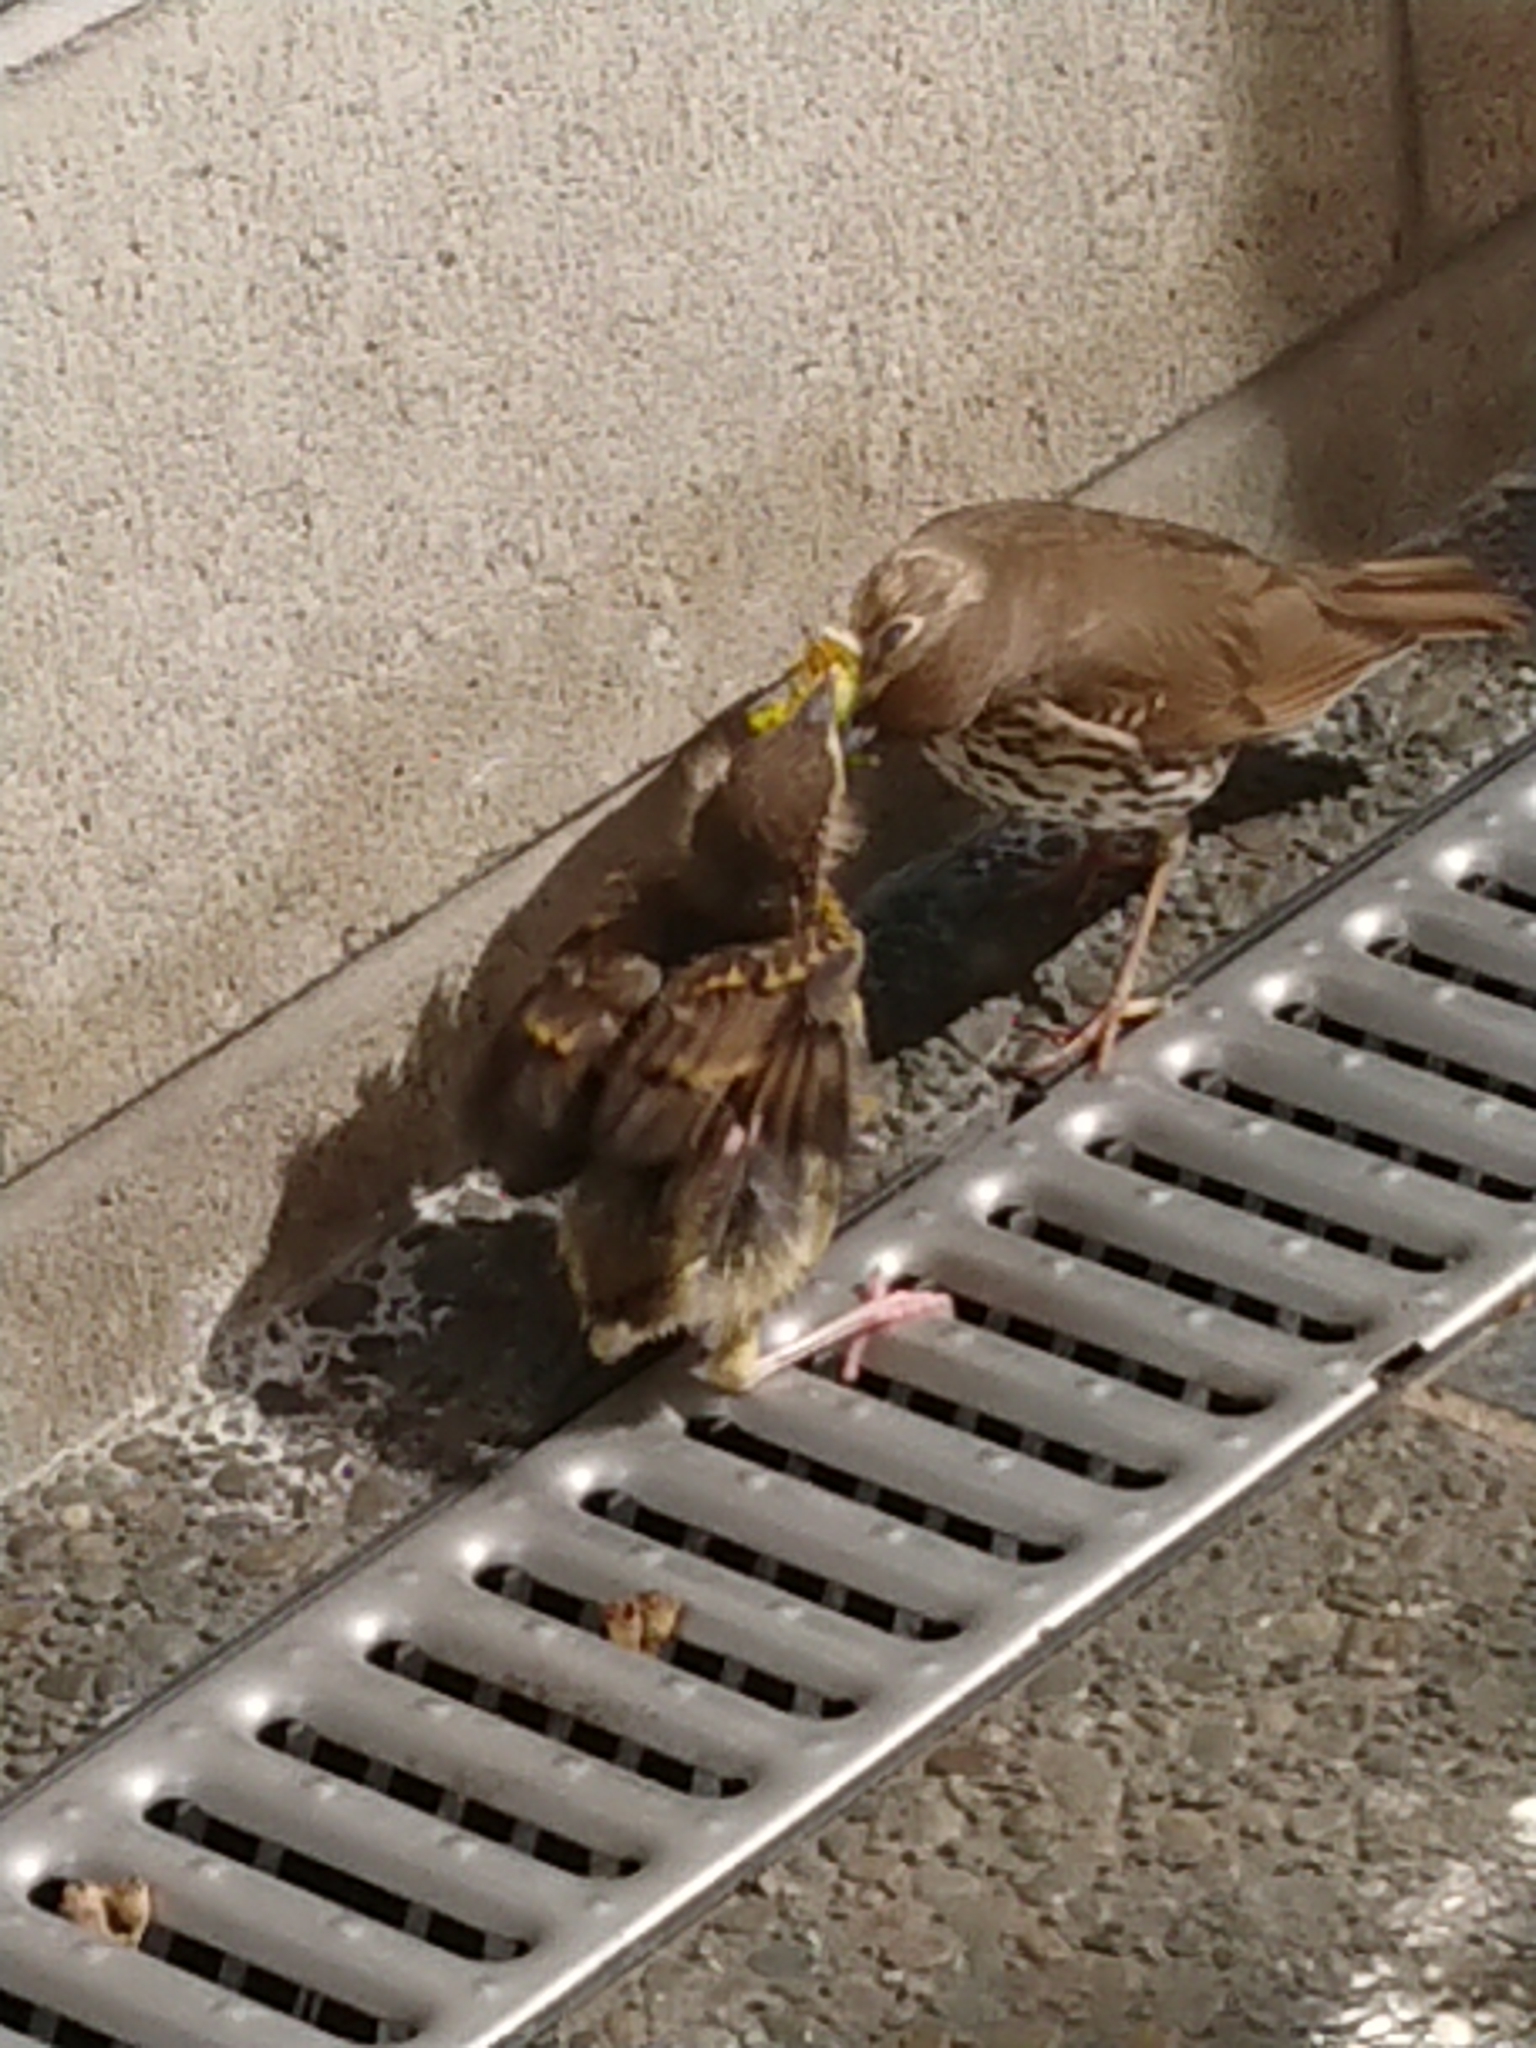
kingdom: Animalia
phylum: Chordata
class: Aves
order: Passeriformes
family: Turdidae
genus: Turdus
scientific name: Turdus philomelos
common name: Song thrush
